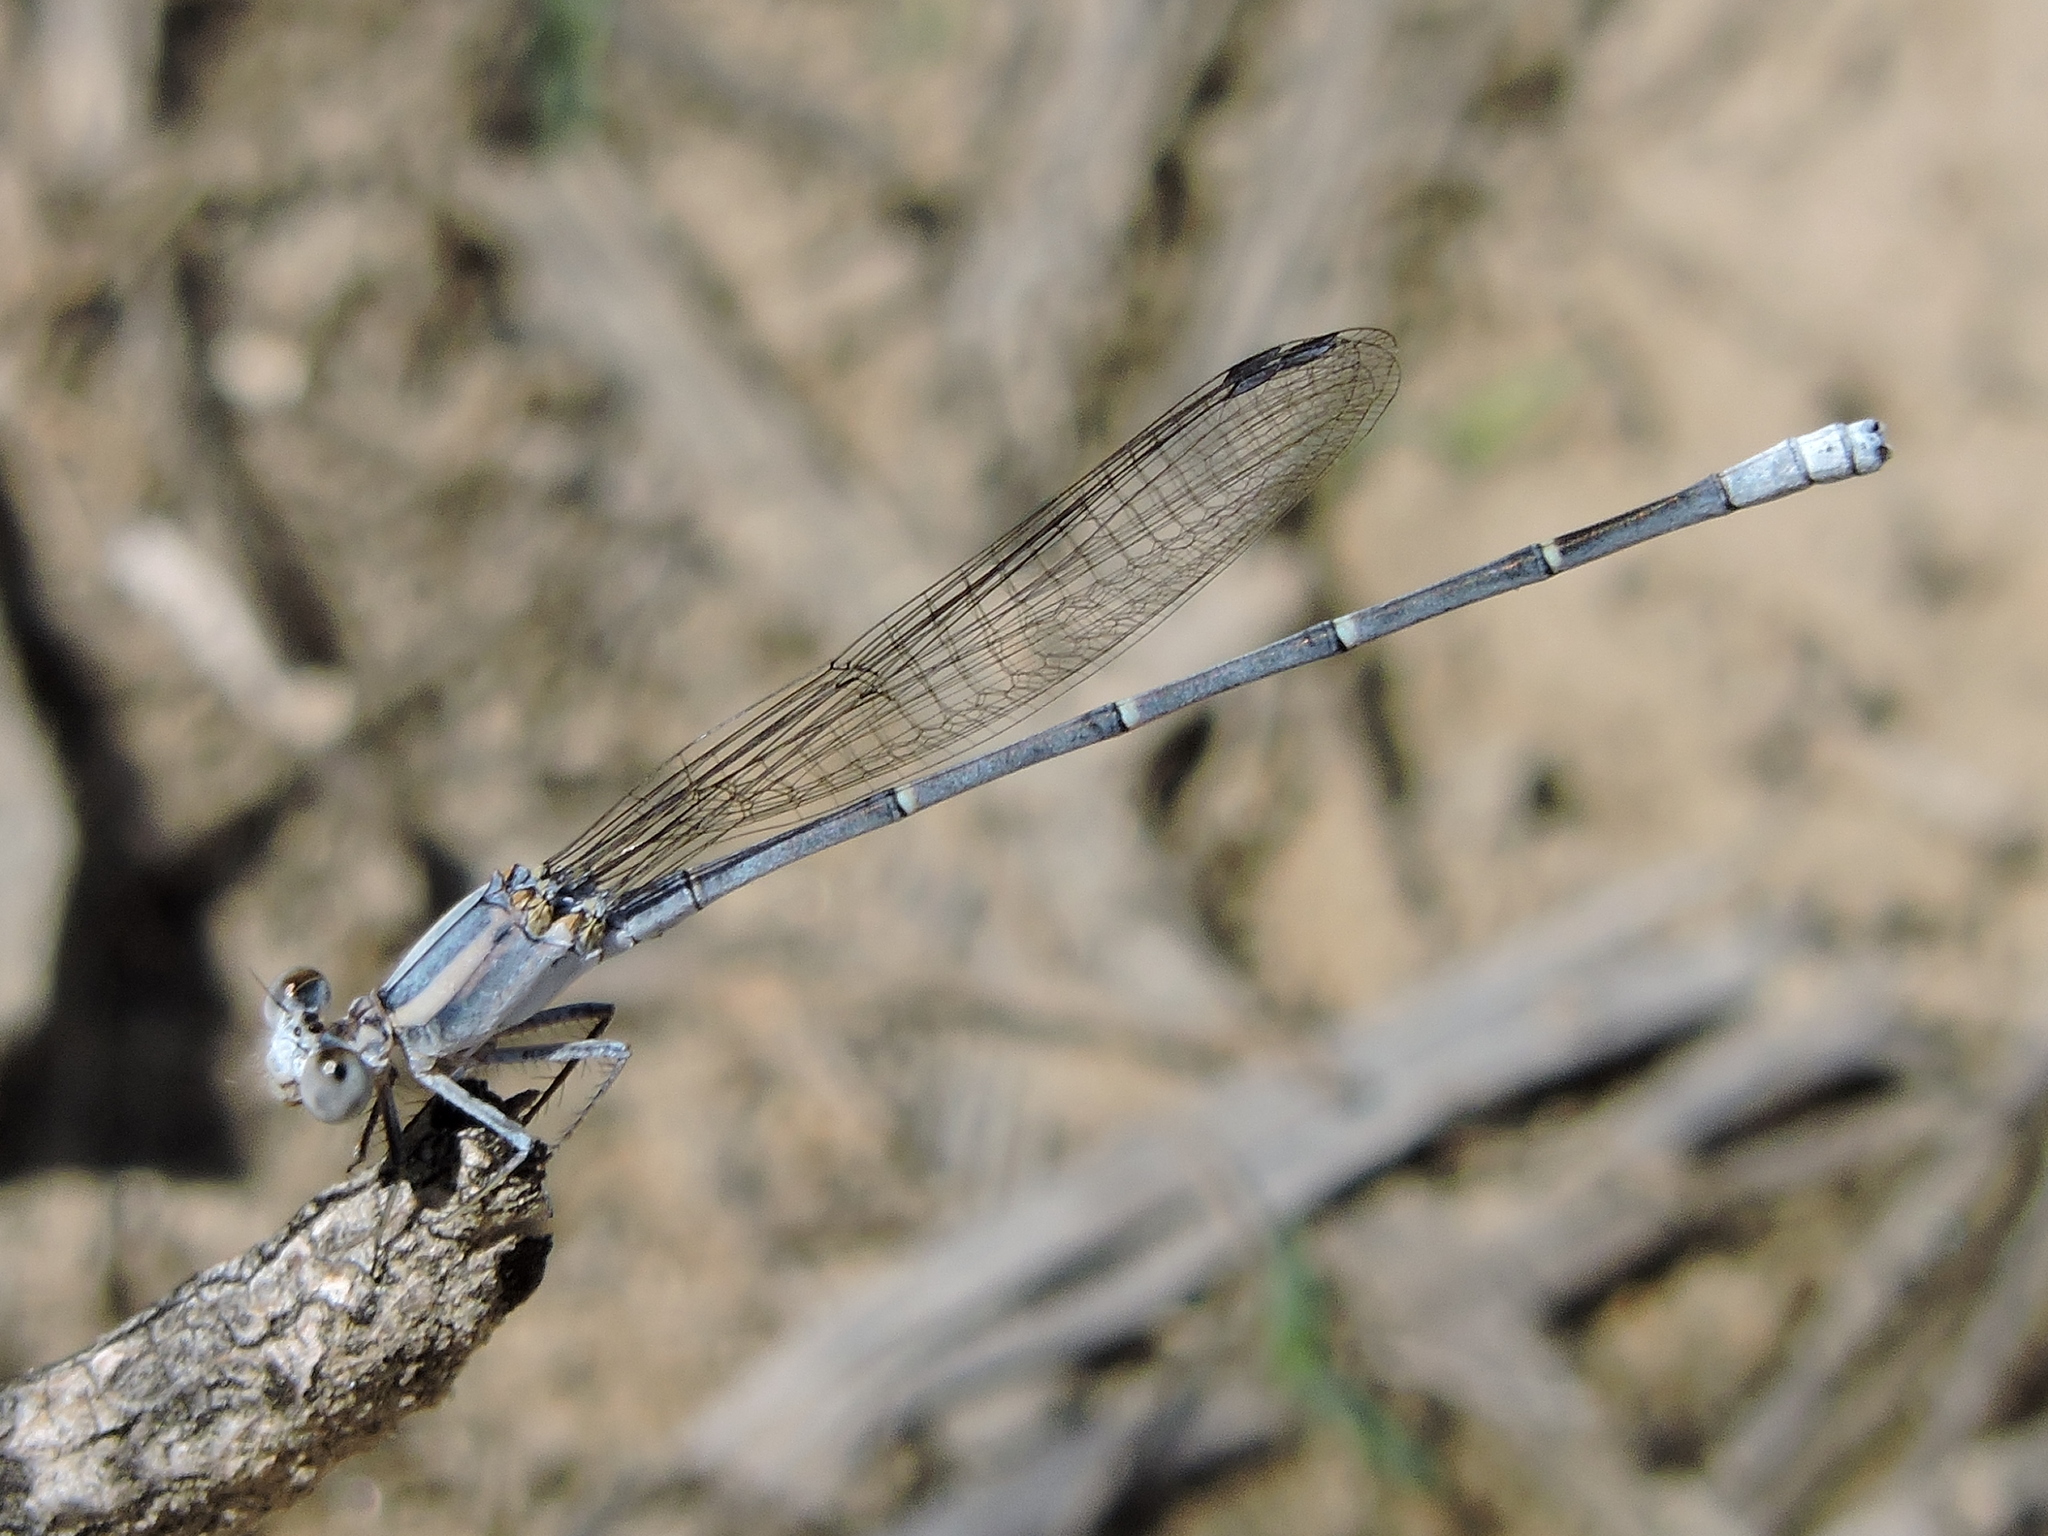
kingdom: Animalia
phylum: Arthropoda
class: Insecta
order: Odonata
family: Coenagrionidae
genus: Argia
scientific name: Argia moesta
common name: Powdered dancer
